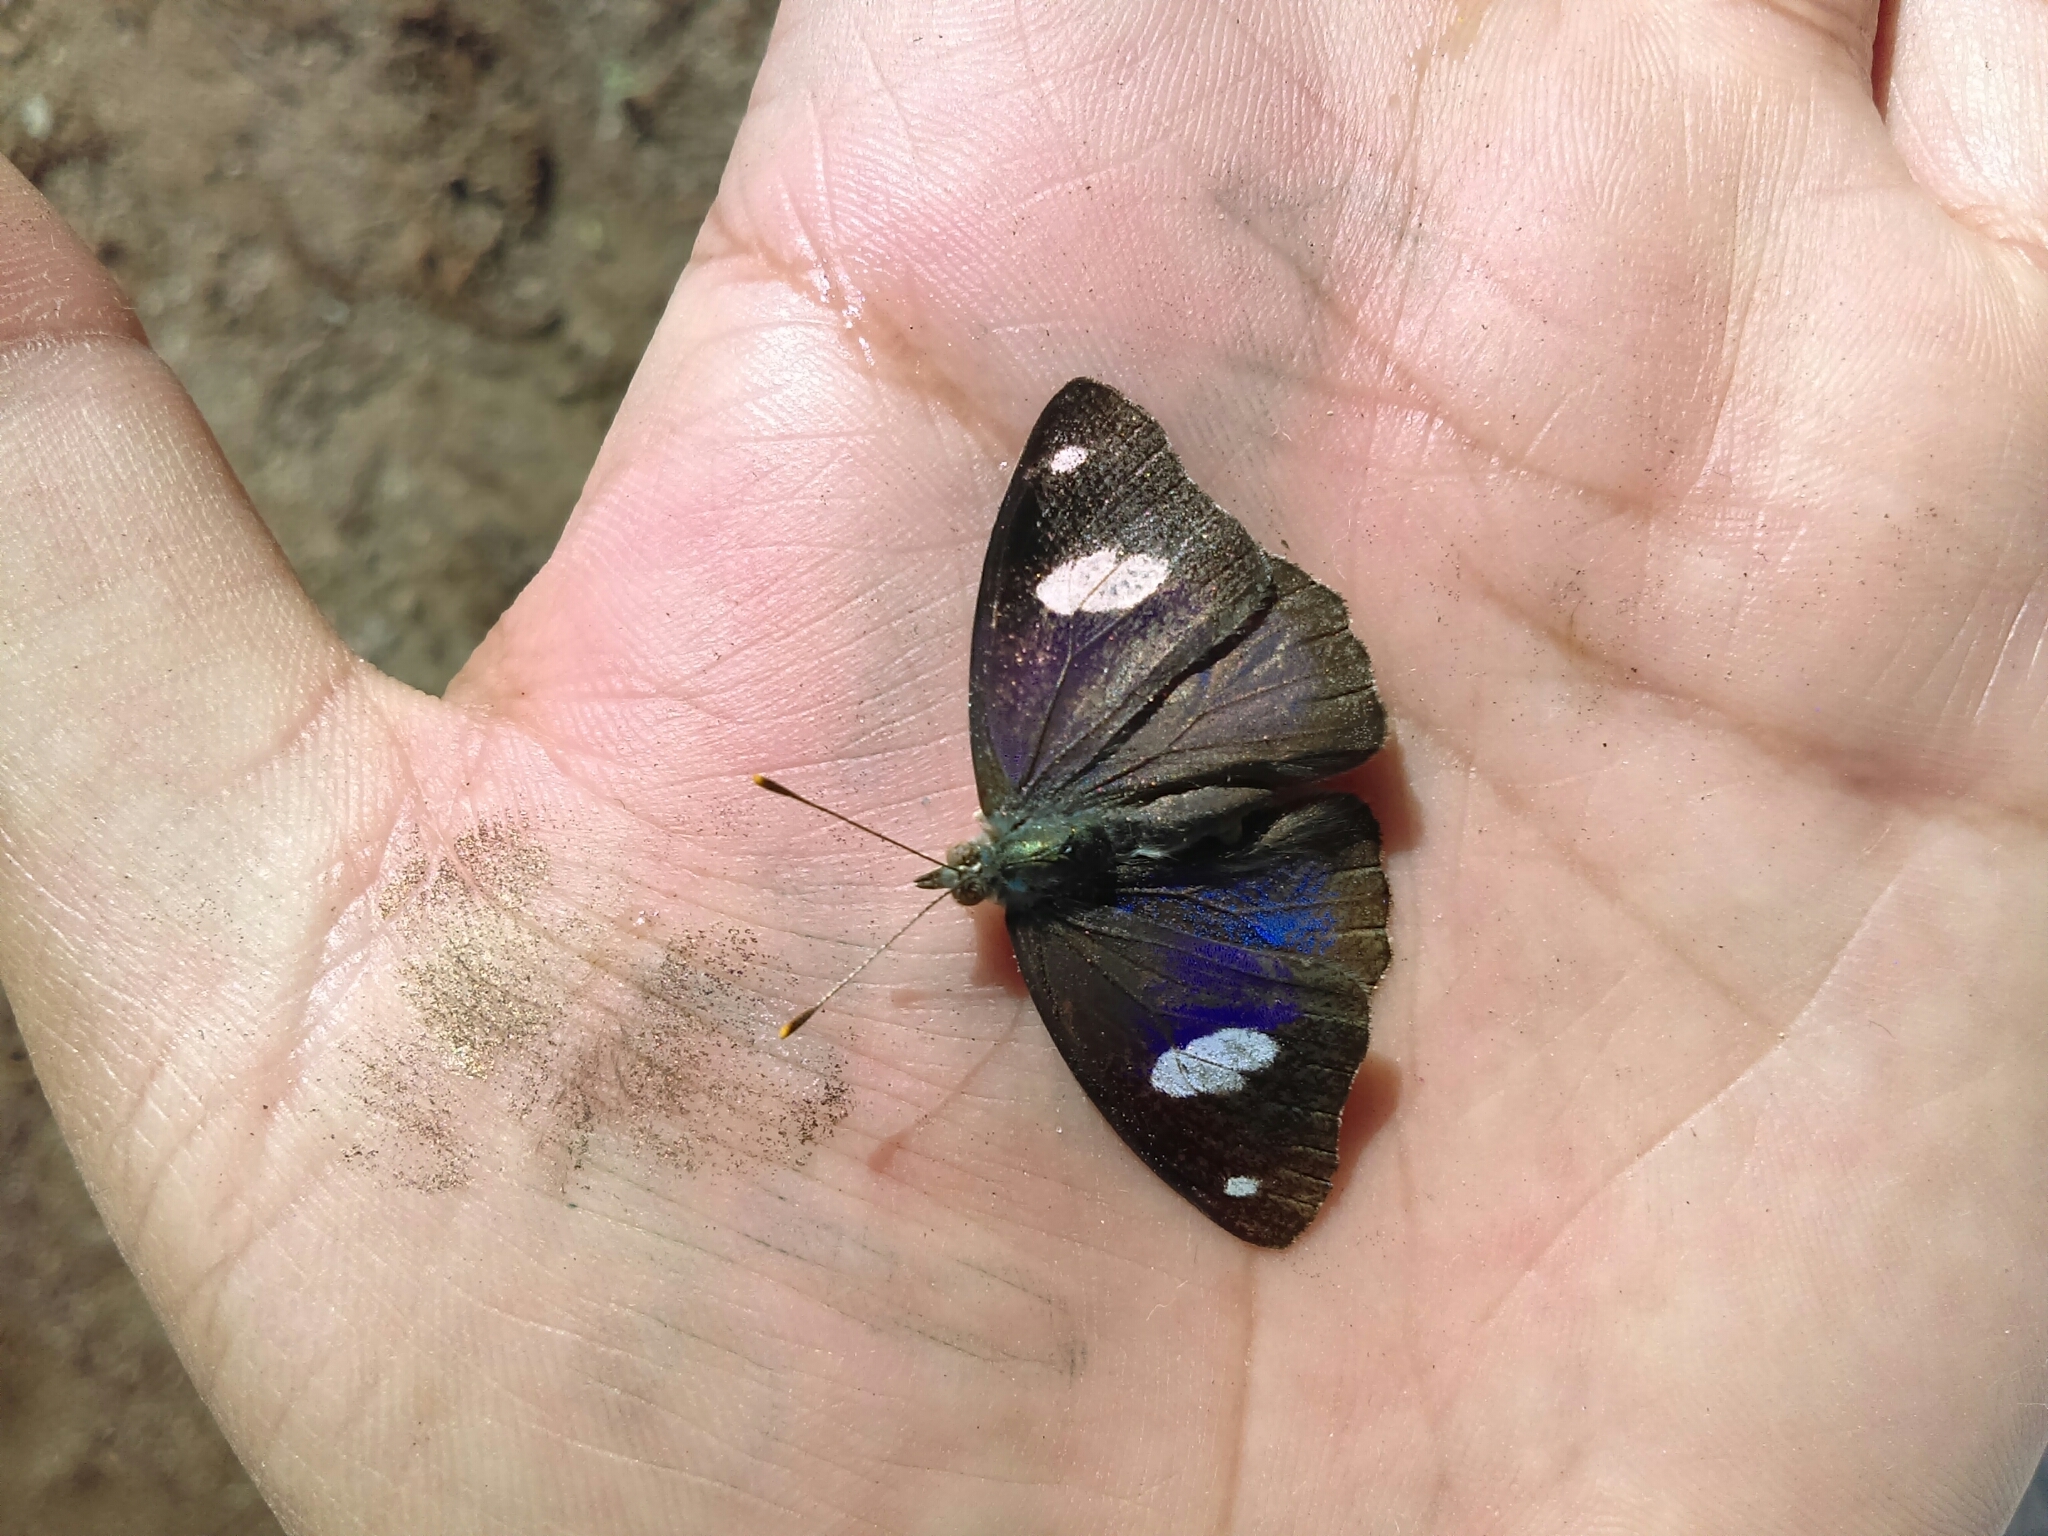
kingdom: Animalia
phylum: Arthropoda
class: Insecta
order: Lepidoptera
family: Nymphalidae
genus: Diaethria
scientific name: Diaethria
